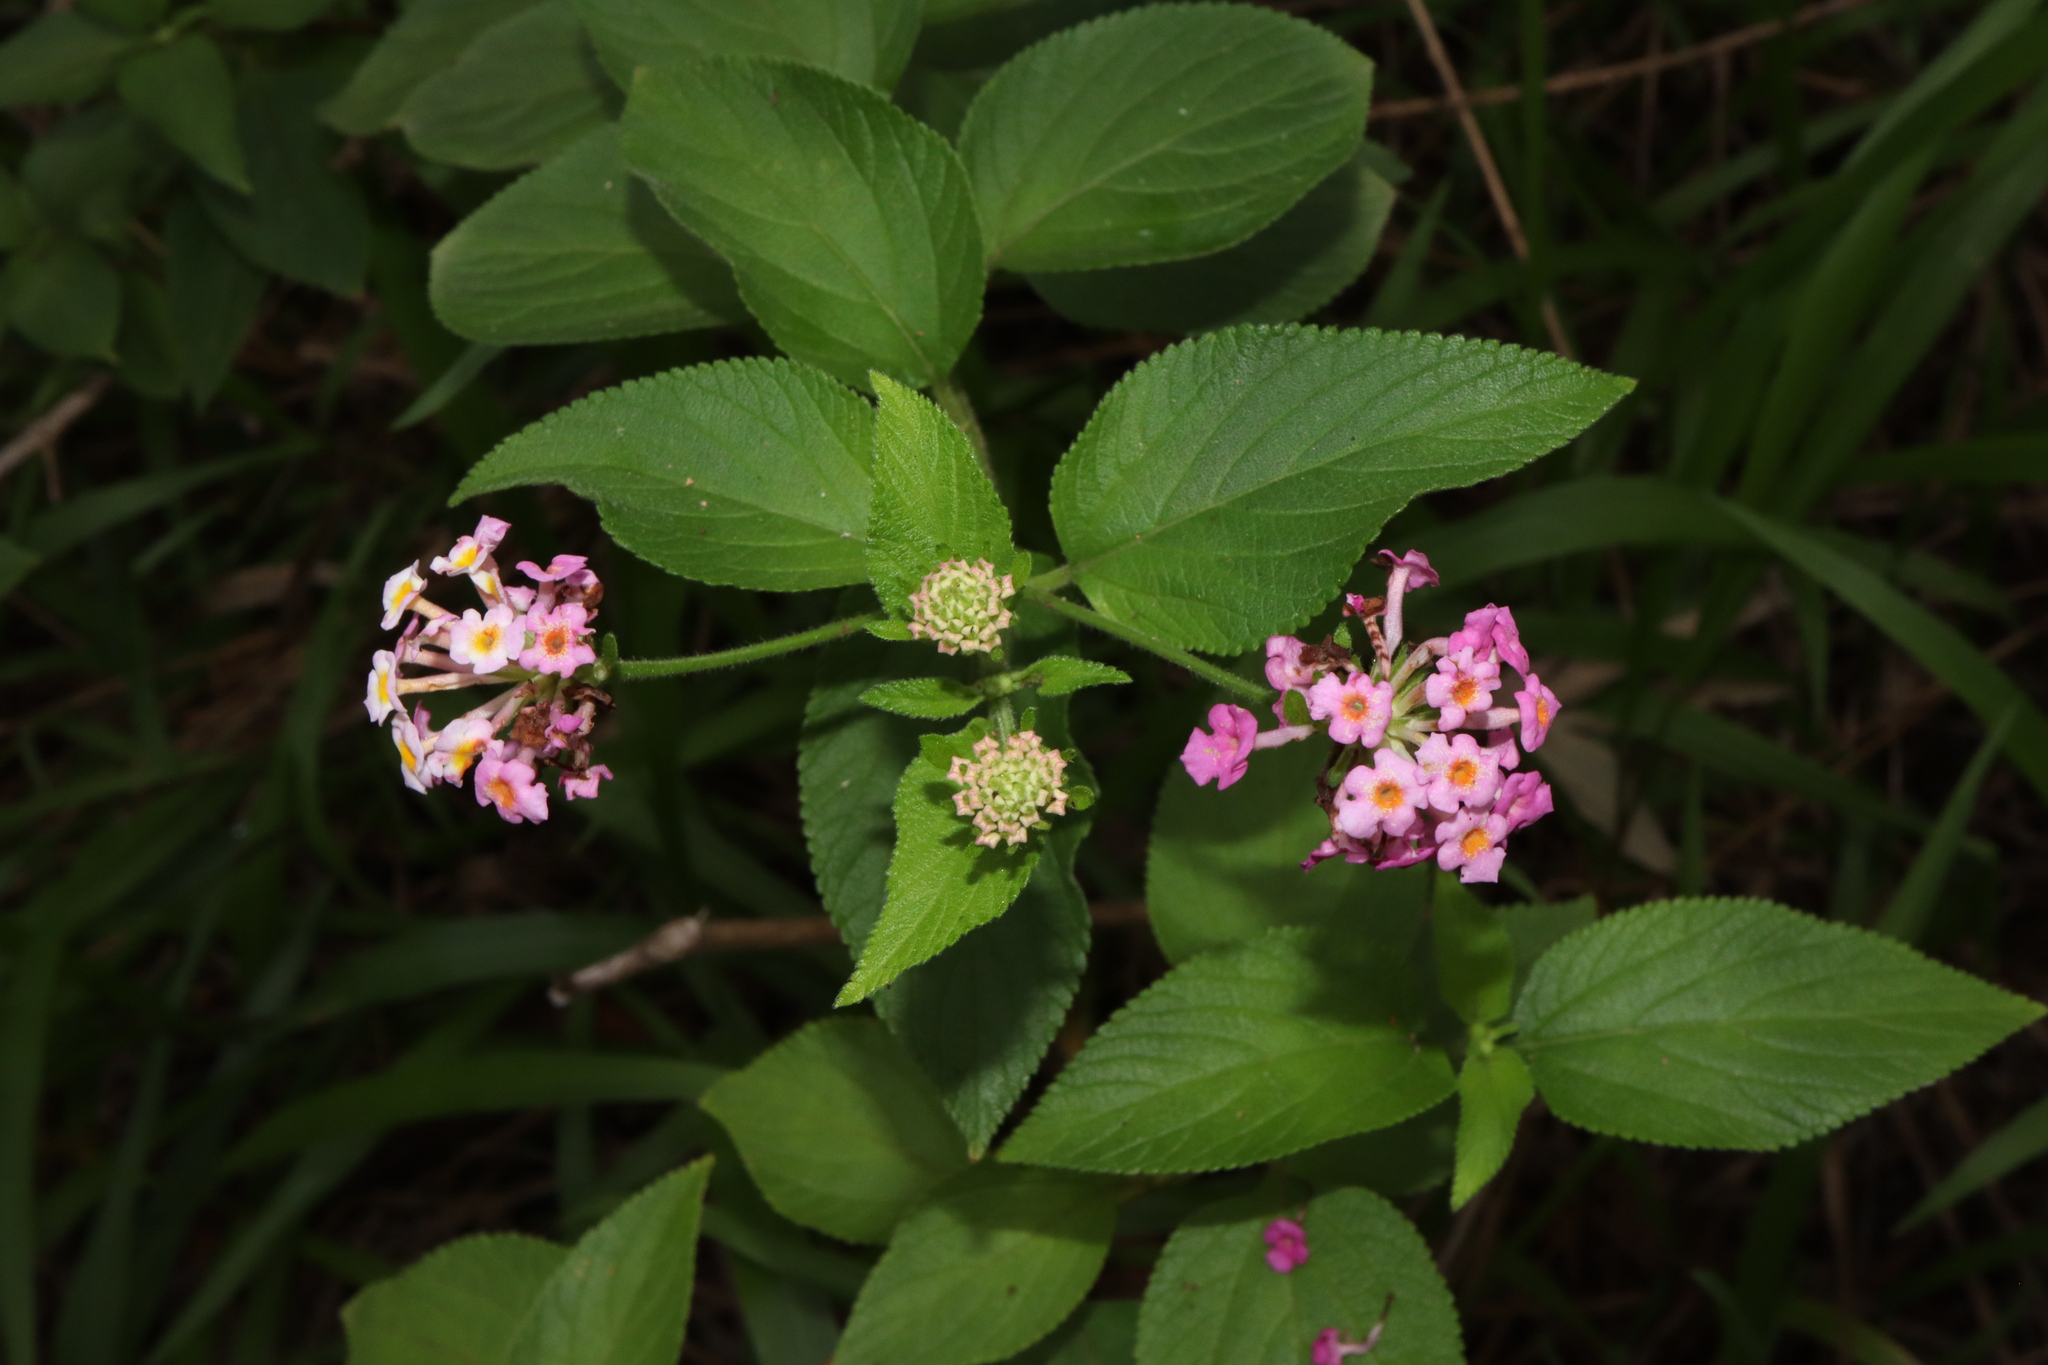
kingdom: Plantae
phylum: Tracheophyta
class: Magnoliopsida
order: Lamiales
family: Verbenaceae
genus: Lantana
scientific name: Lantana camara
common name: Lantana
